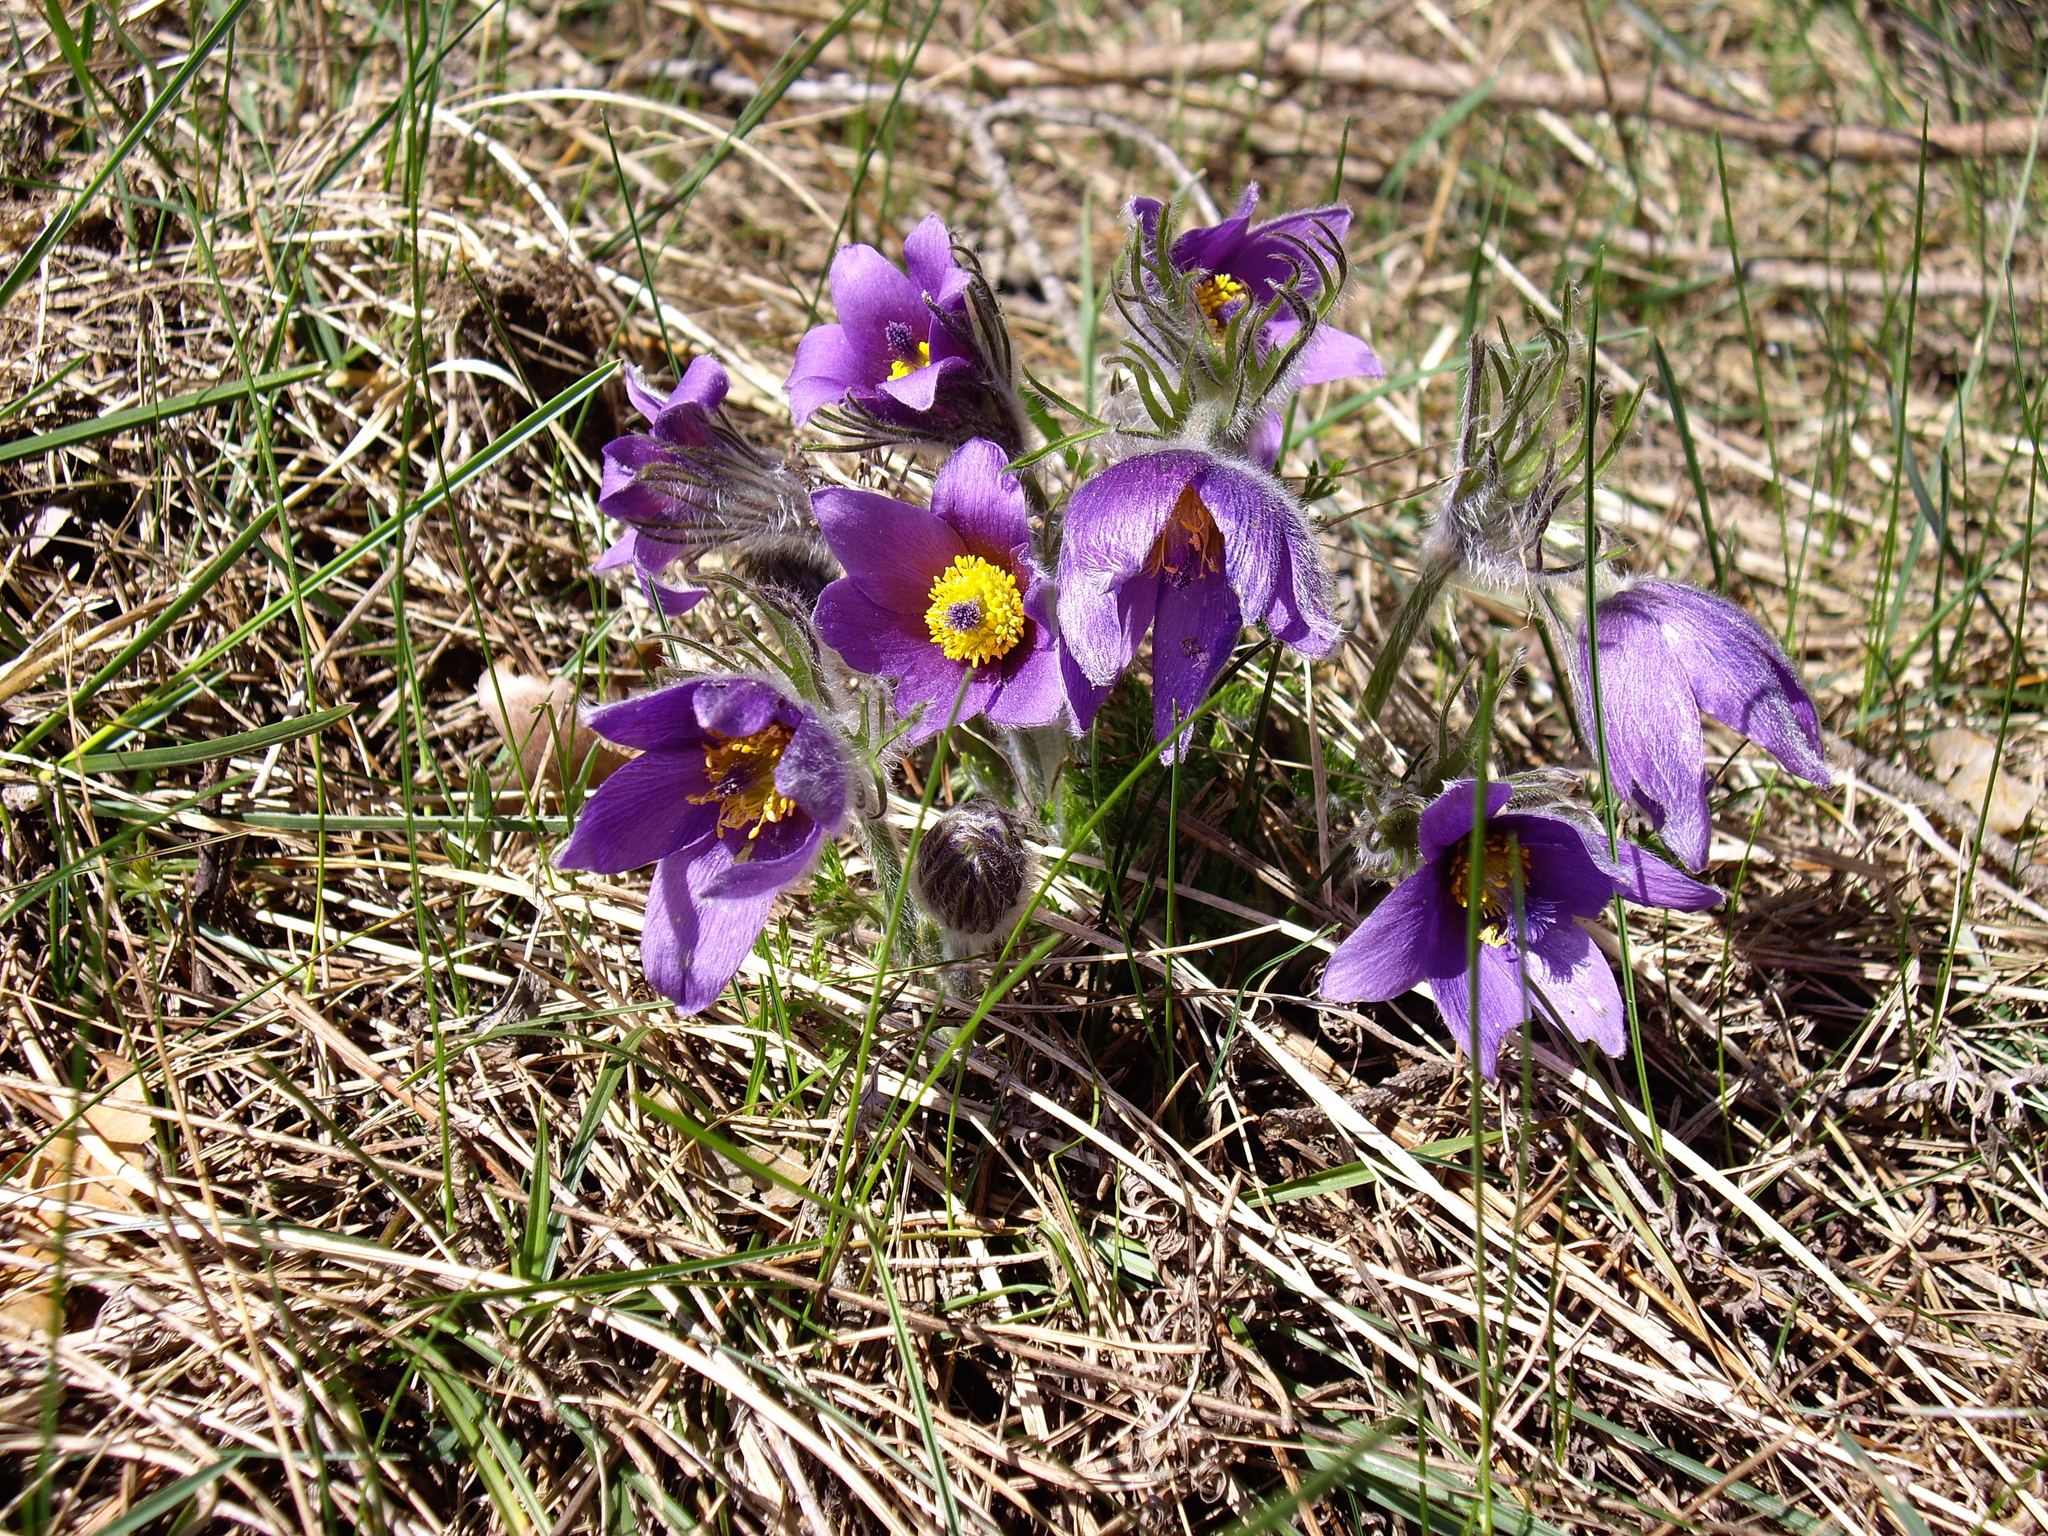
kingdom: Plantae
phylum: Tracheophyta
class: Magnoliopsida
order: Ranunculales
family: Ranunculaceae
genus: Pulsatilla
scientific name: Pulsatilla vulgaris
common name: Pasqueflower
